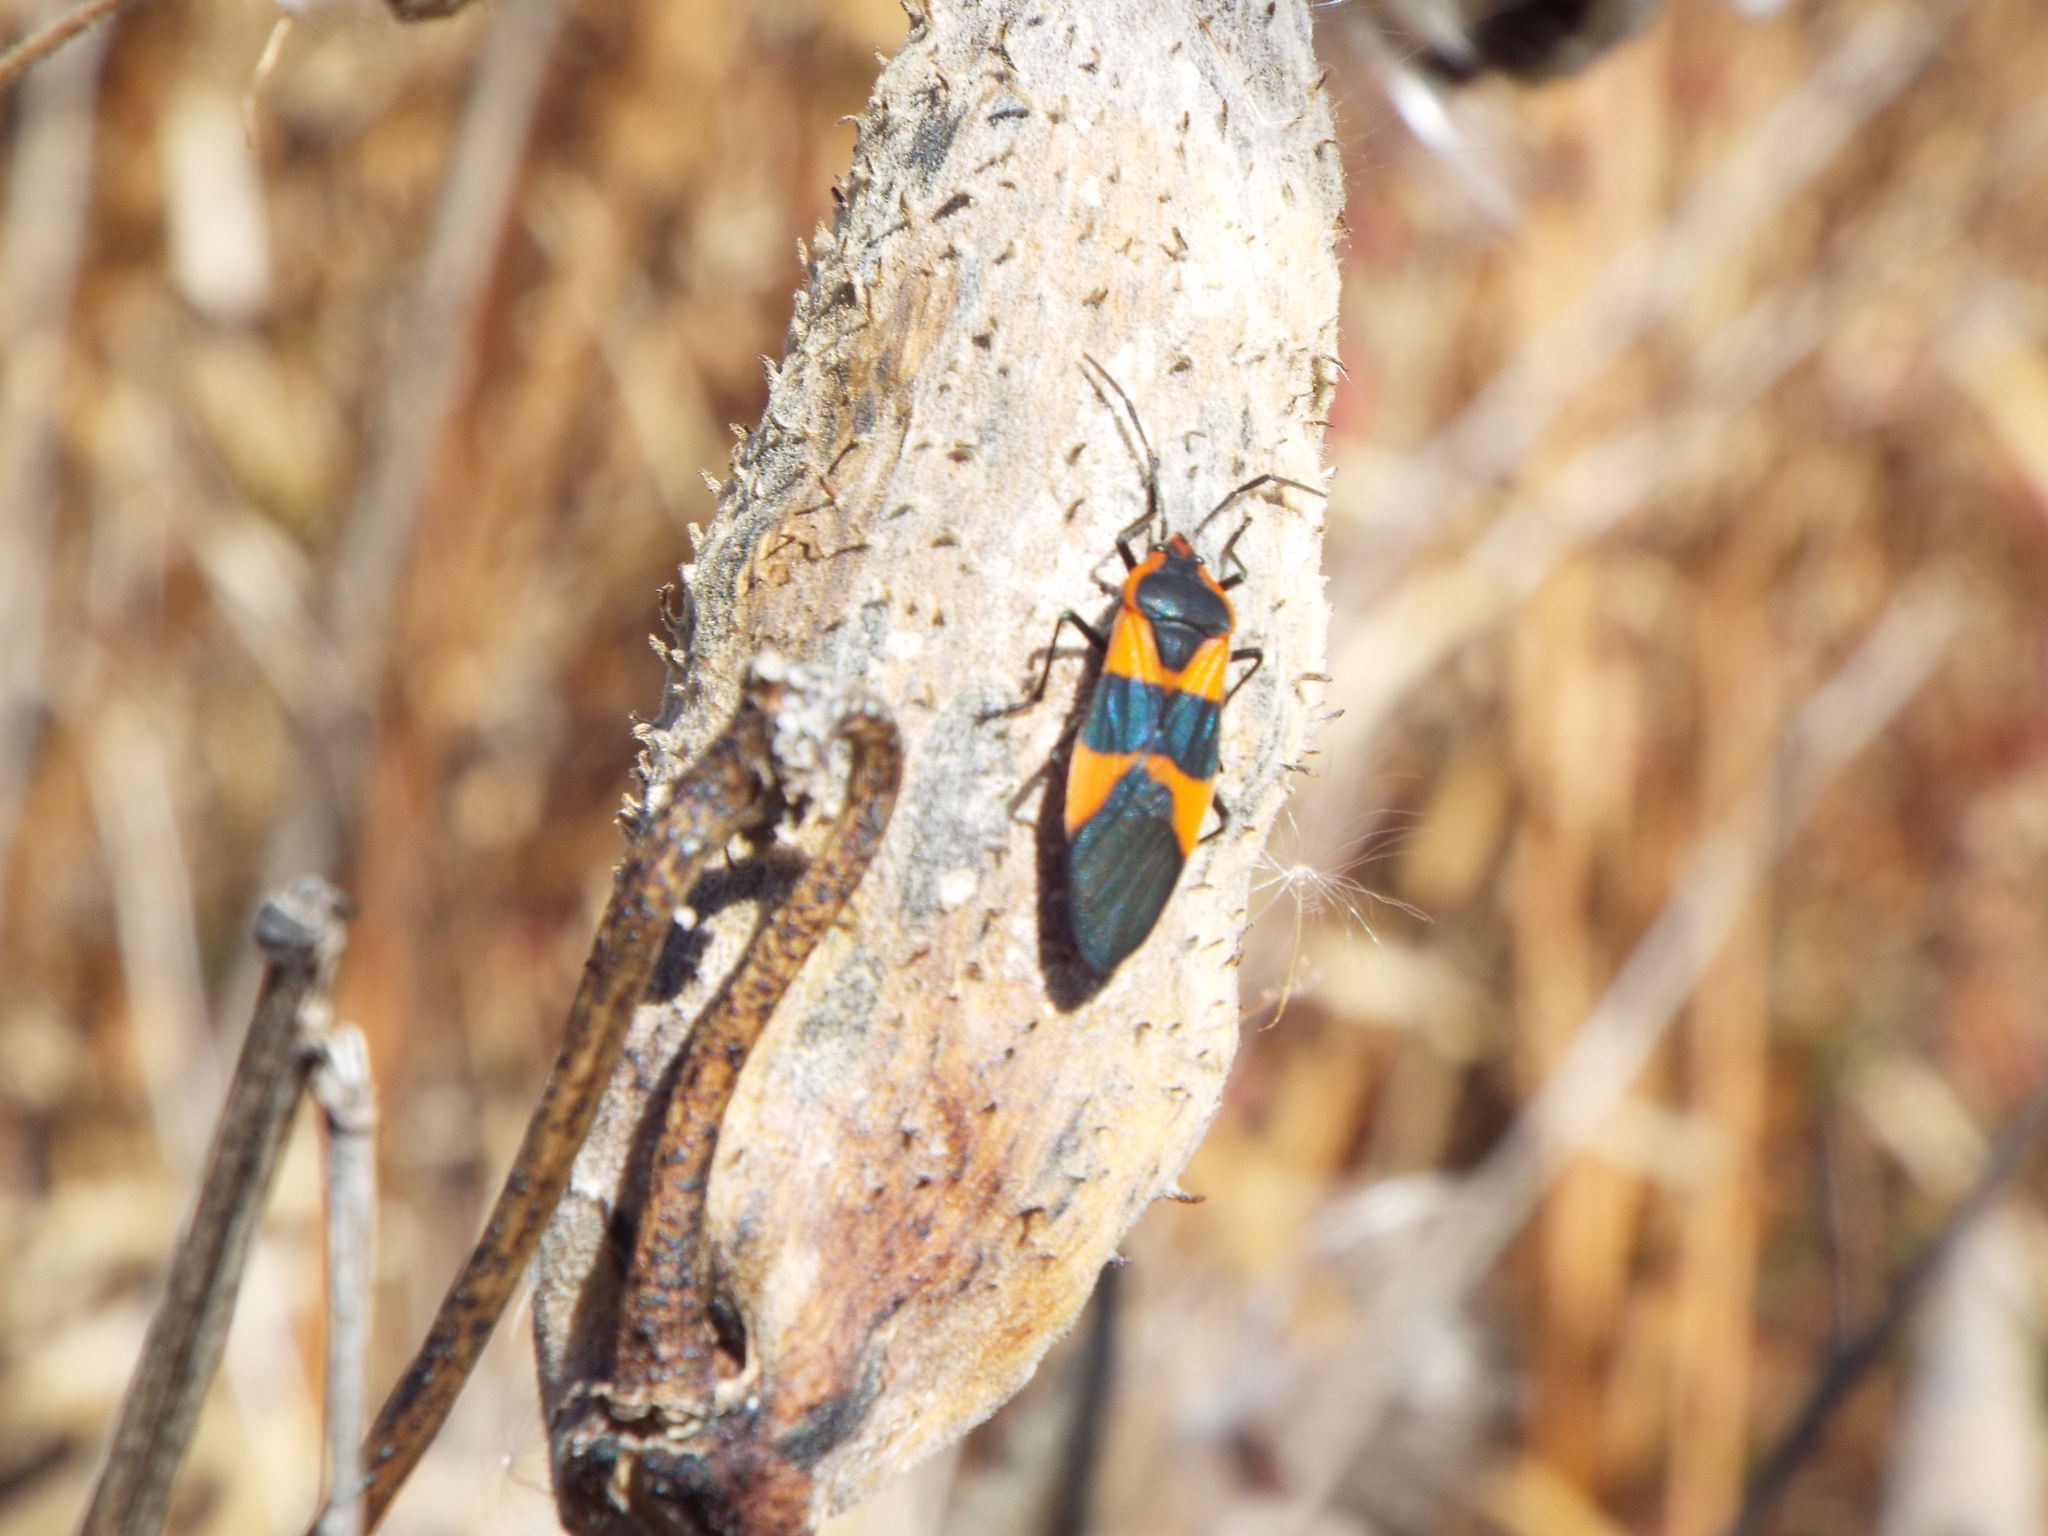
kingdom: Animalia
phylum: Arthropoda
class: Insecta
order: Hemiptera
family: Lygaeidae
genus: Oncopeltus
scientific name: Oncopeltus fasciatus
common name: Large milkweed bug
